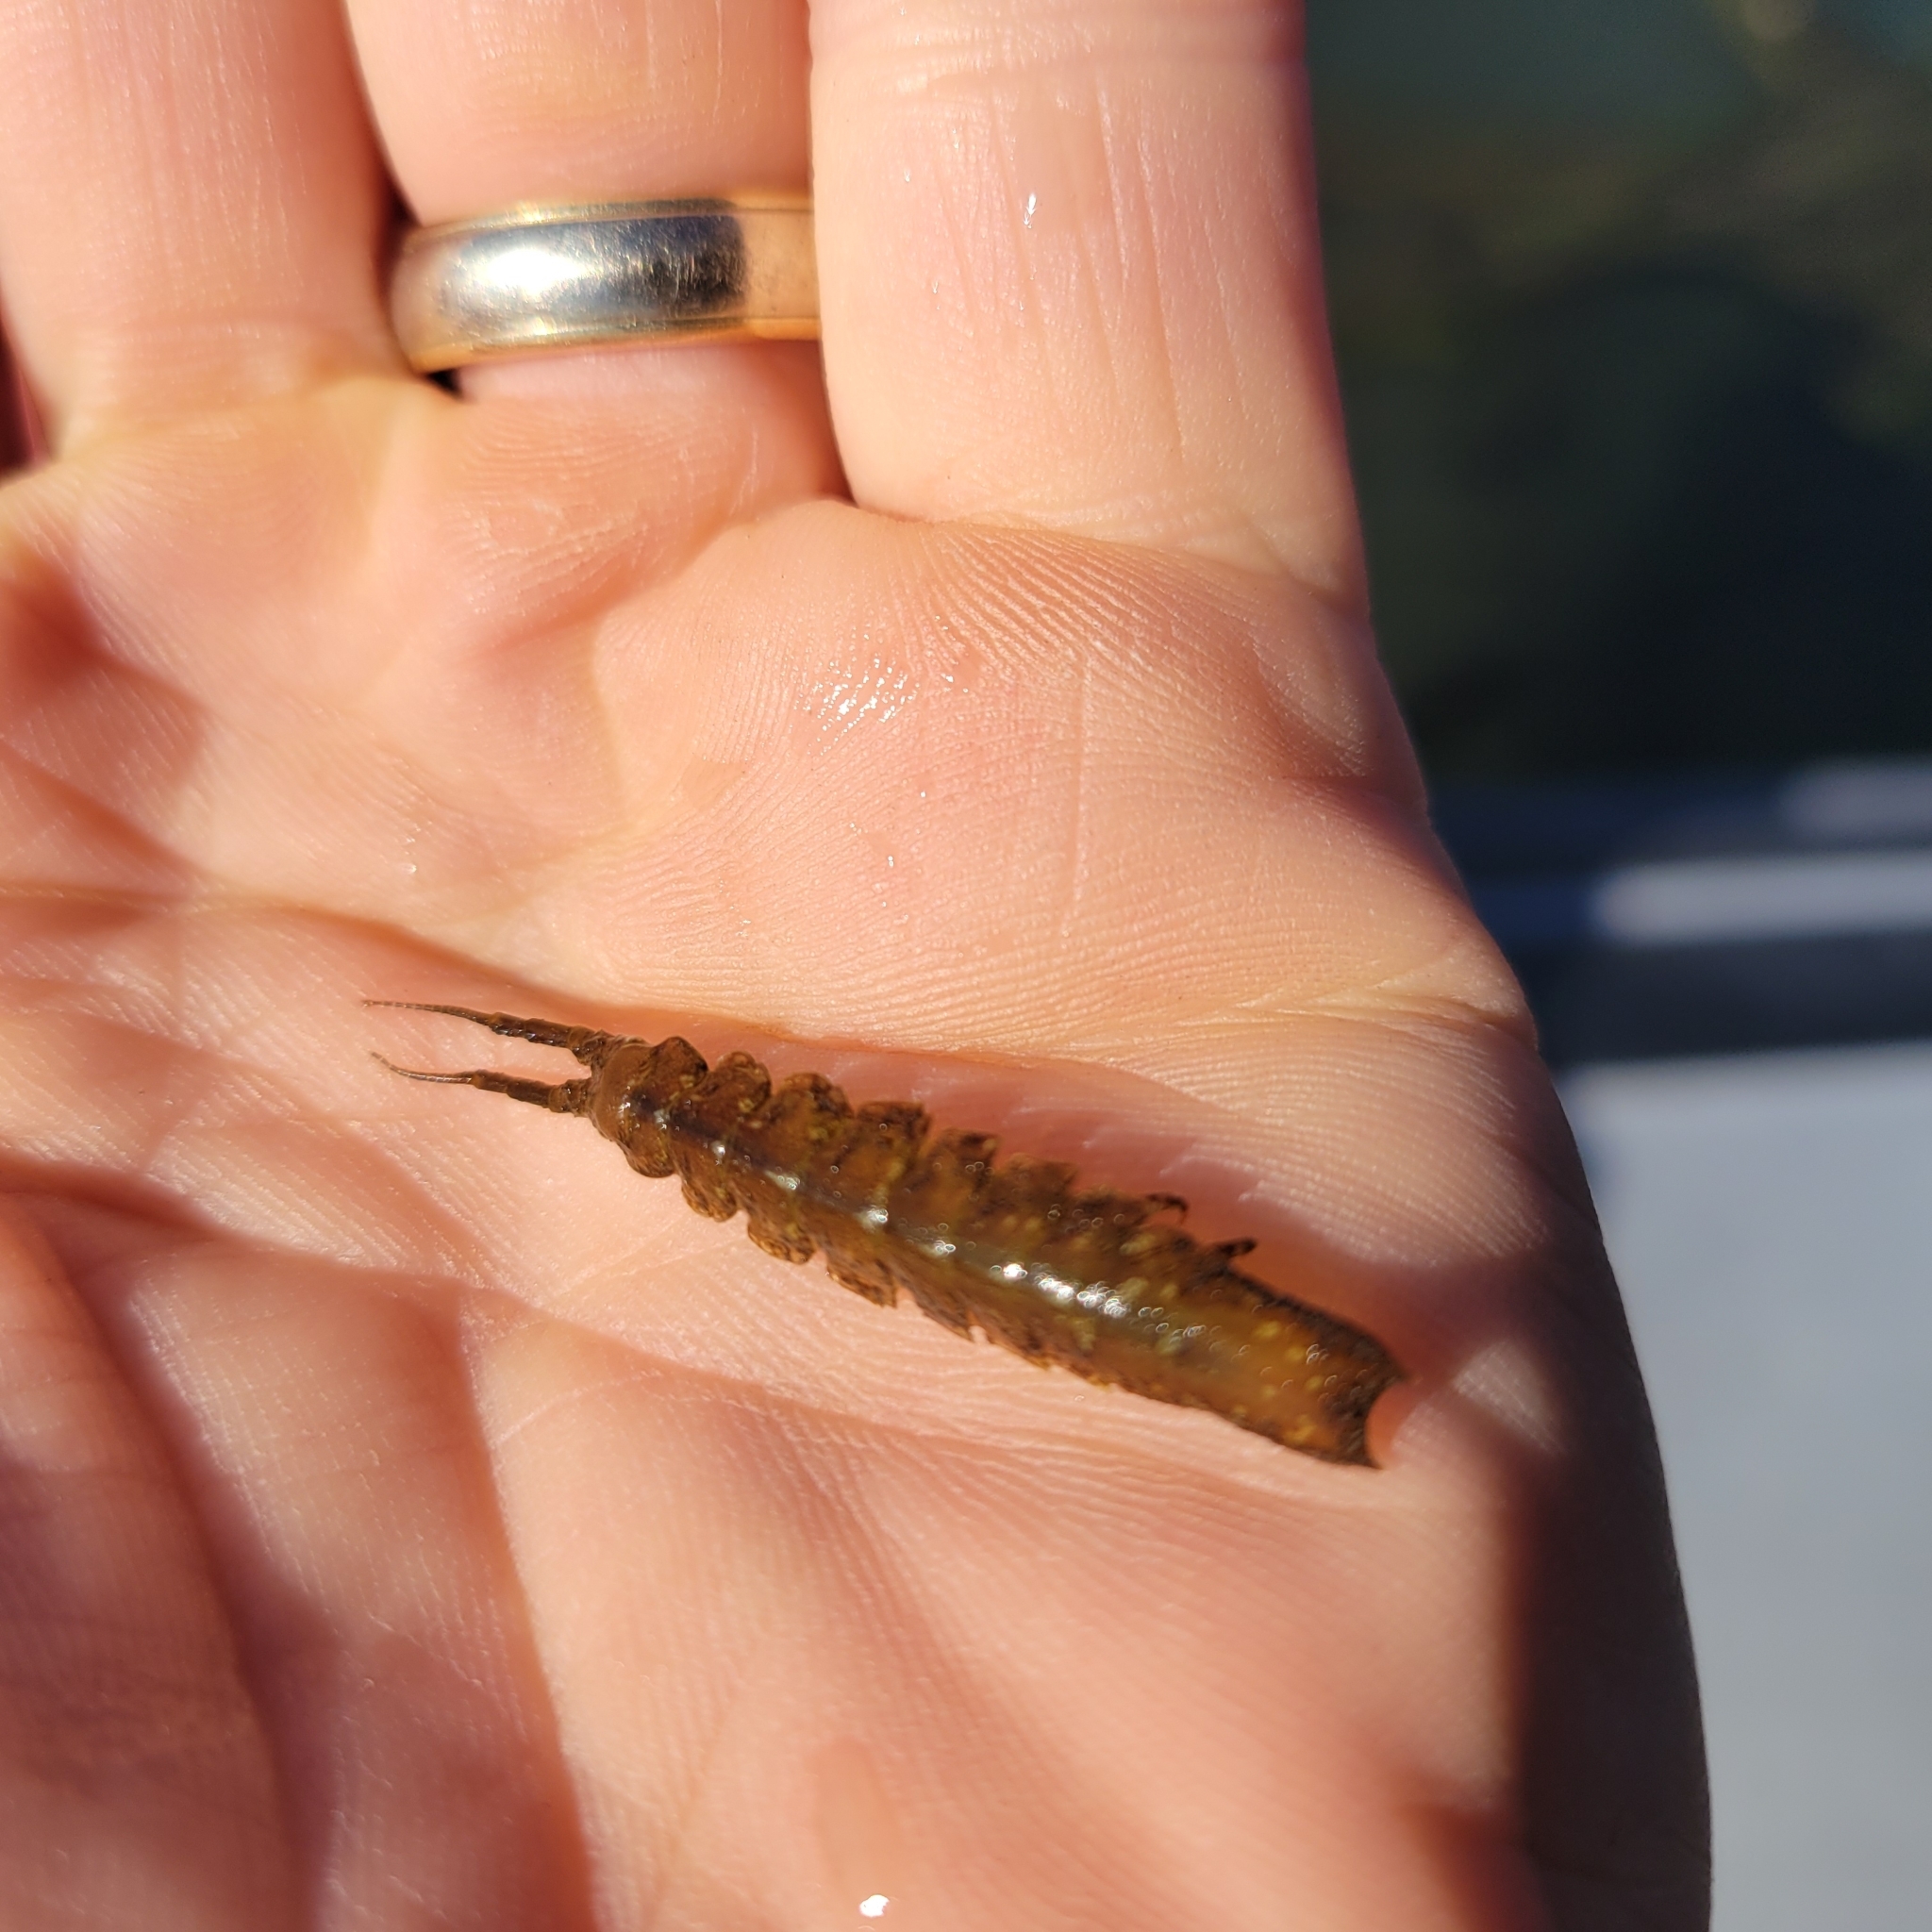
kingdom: Animalia
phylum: Arthropoda
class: Malacostraca
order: Isopoda
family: Idoteidae
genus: Pentidotea
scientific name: Pentidotea resecata
